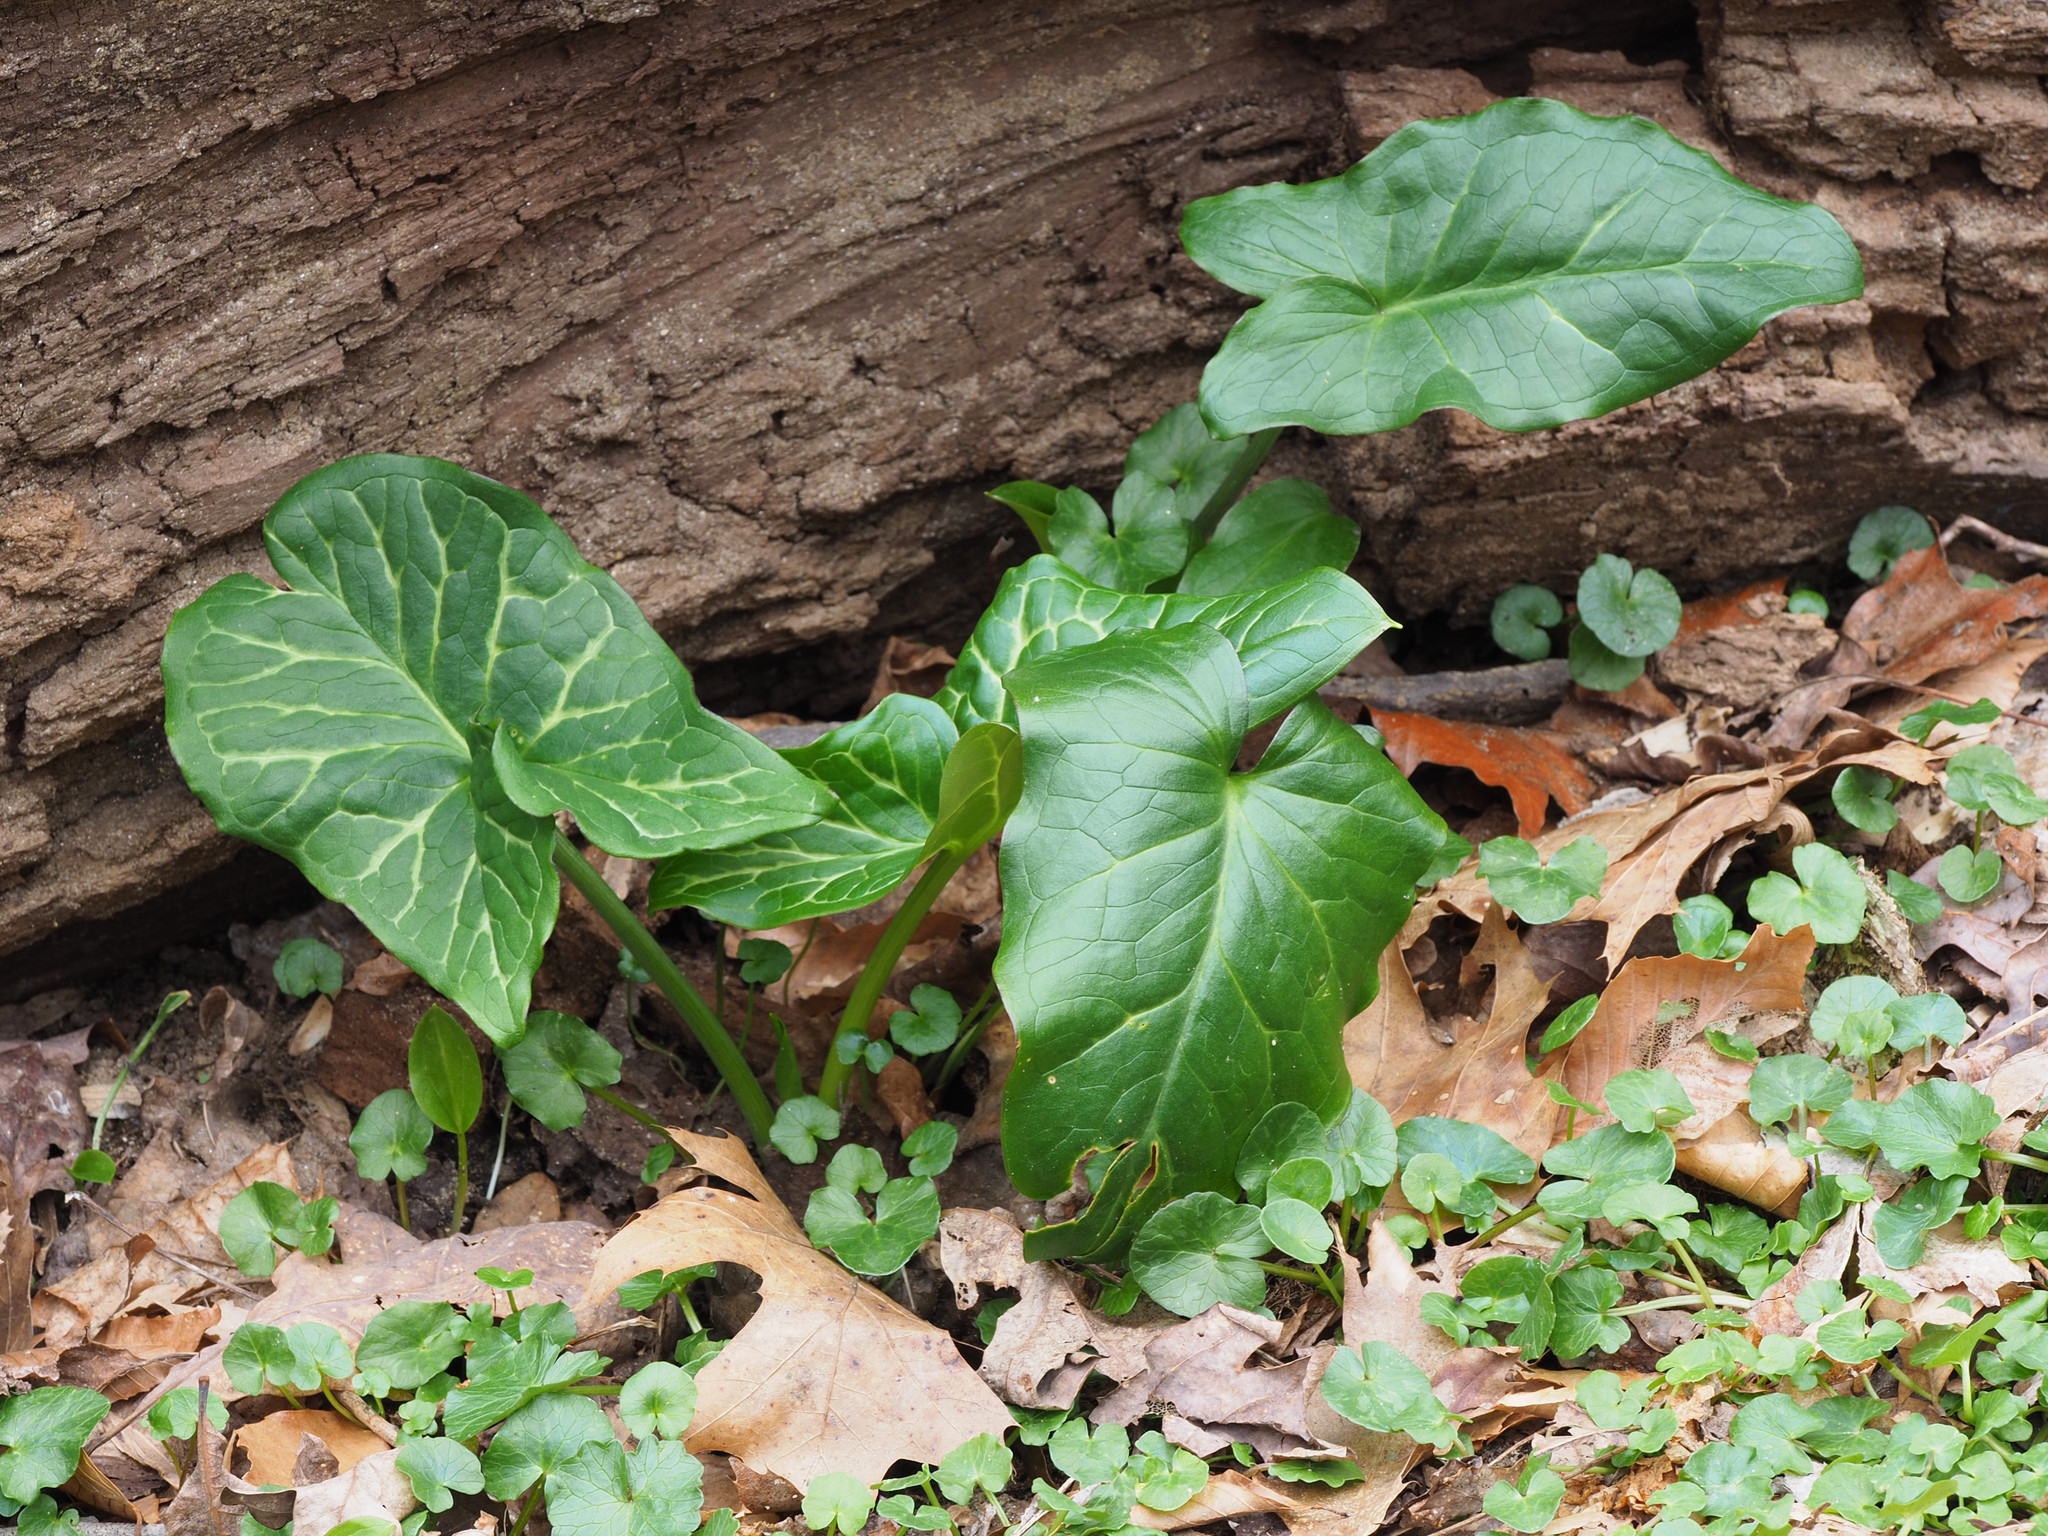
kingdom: Plantae
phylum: Tracheophyta
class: Liliopsida
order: Alismatales
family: Araceae
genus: Arum
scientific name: Arum italicum
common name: Italian lords-and-ladies
